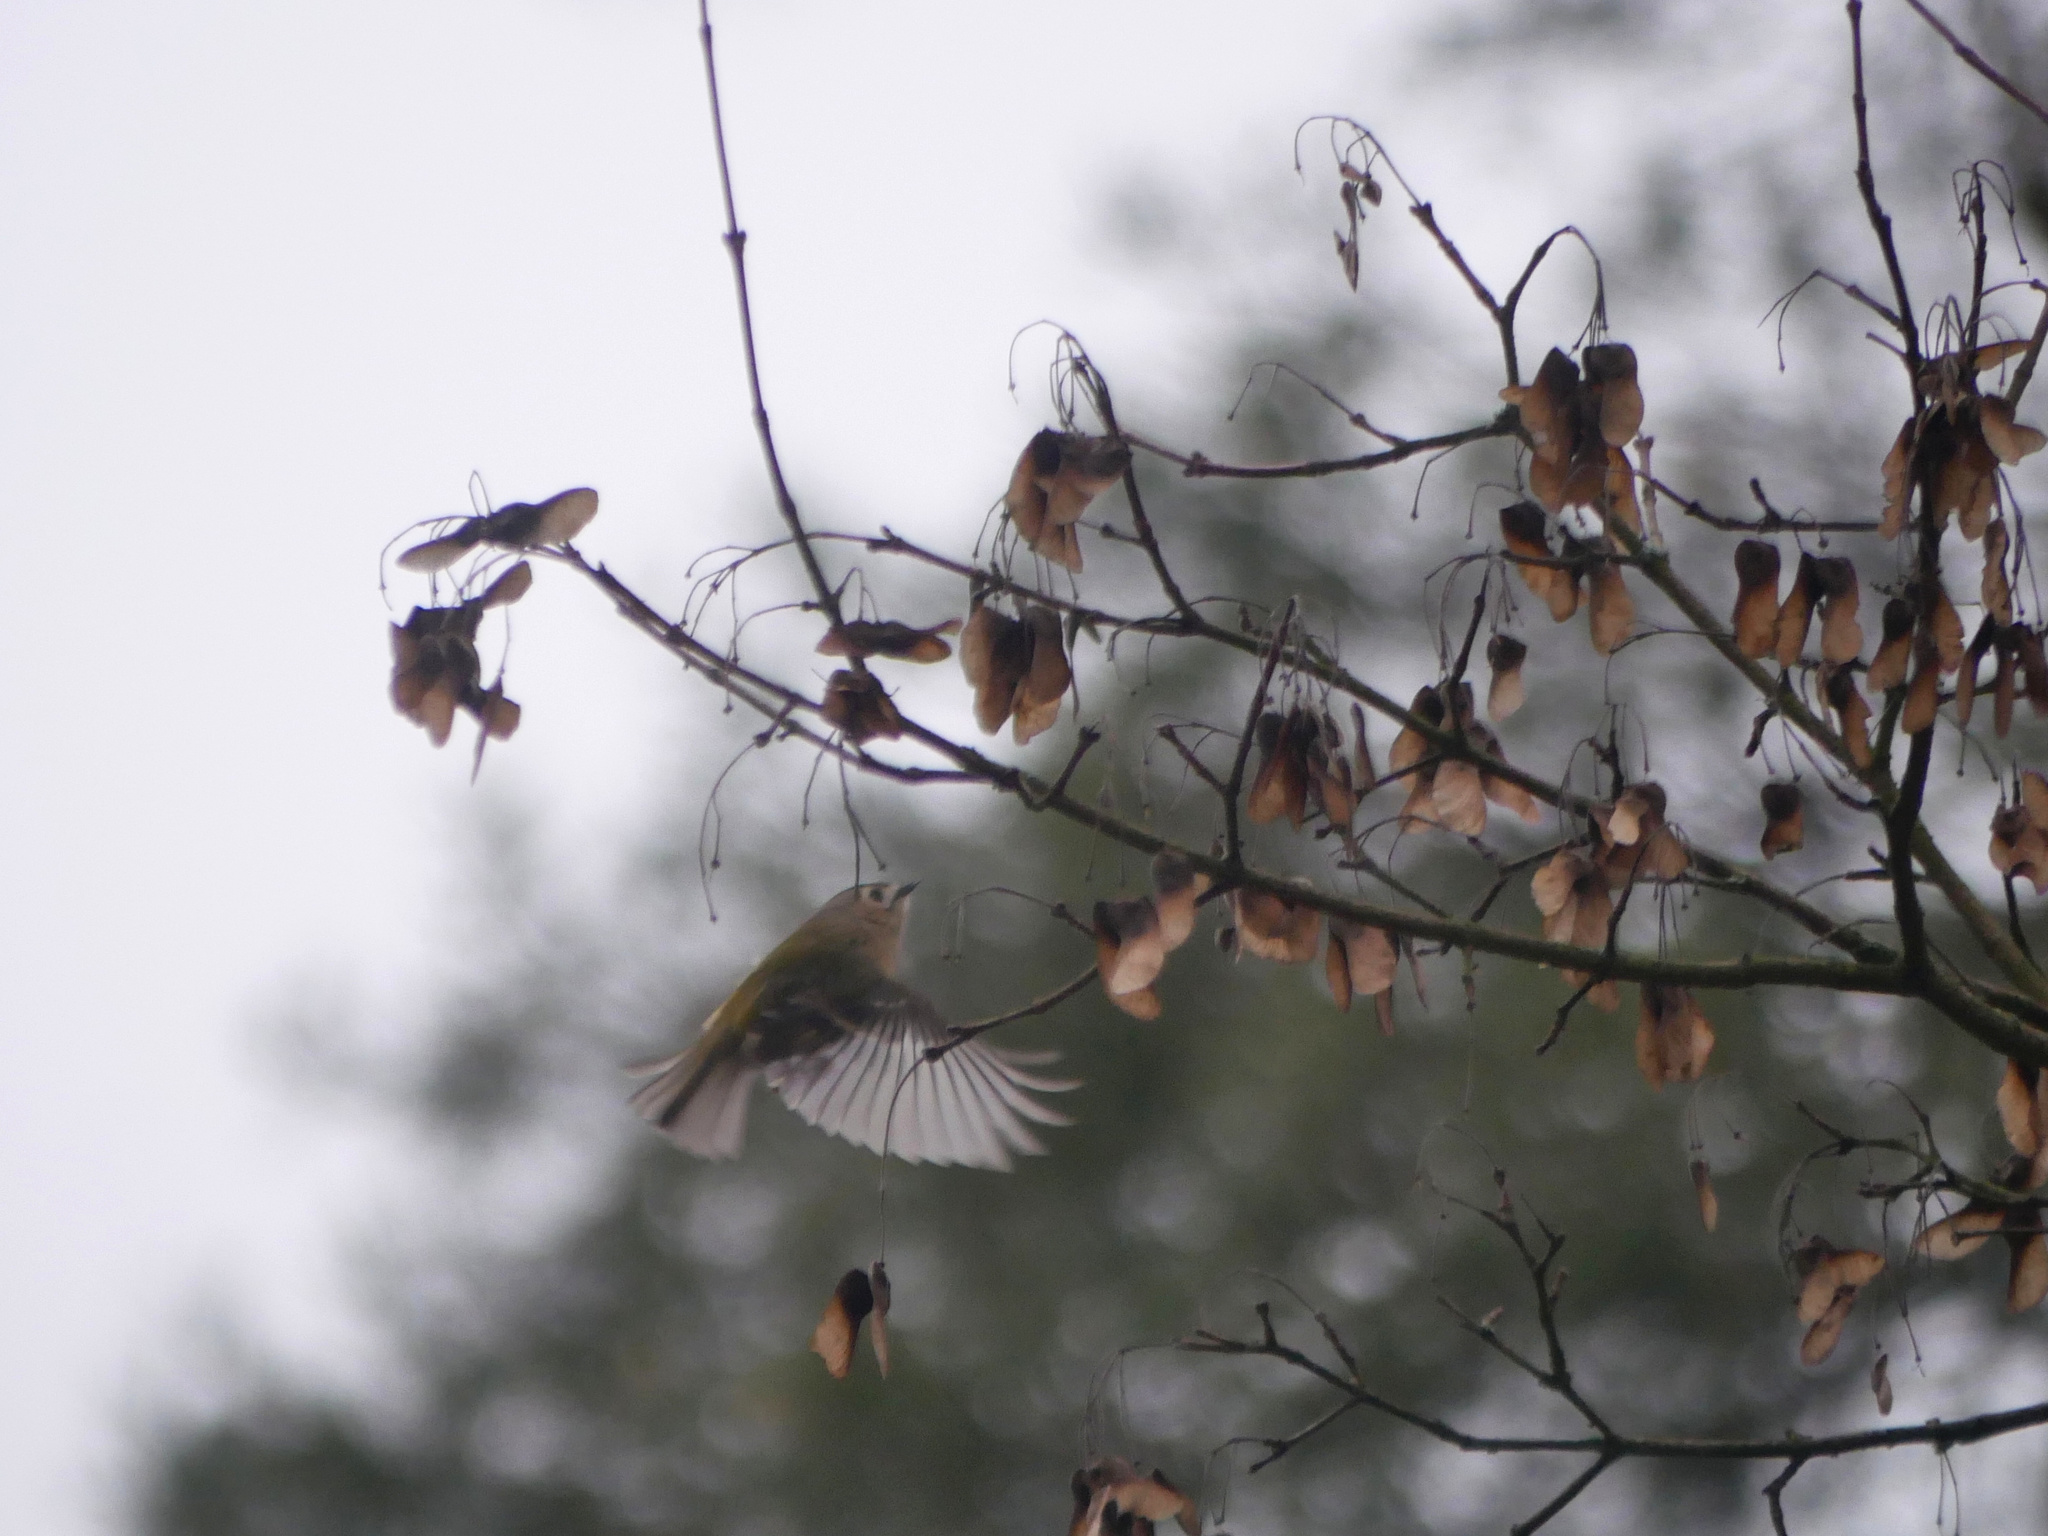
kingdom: Animalia
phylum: Chordata
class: Aves
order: Passeriformes
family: Regulidae
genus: Regulus
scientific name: Regulus regulus
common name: Goldcrest
